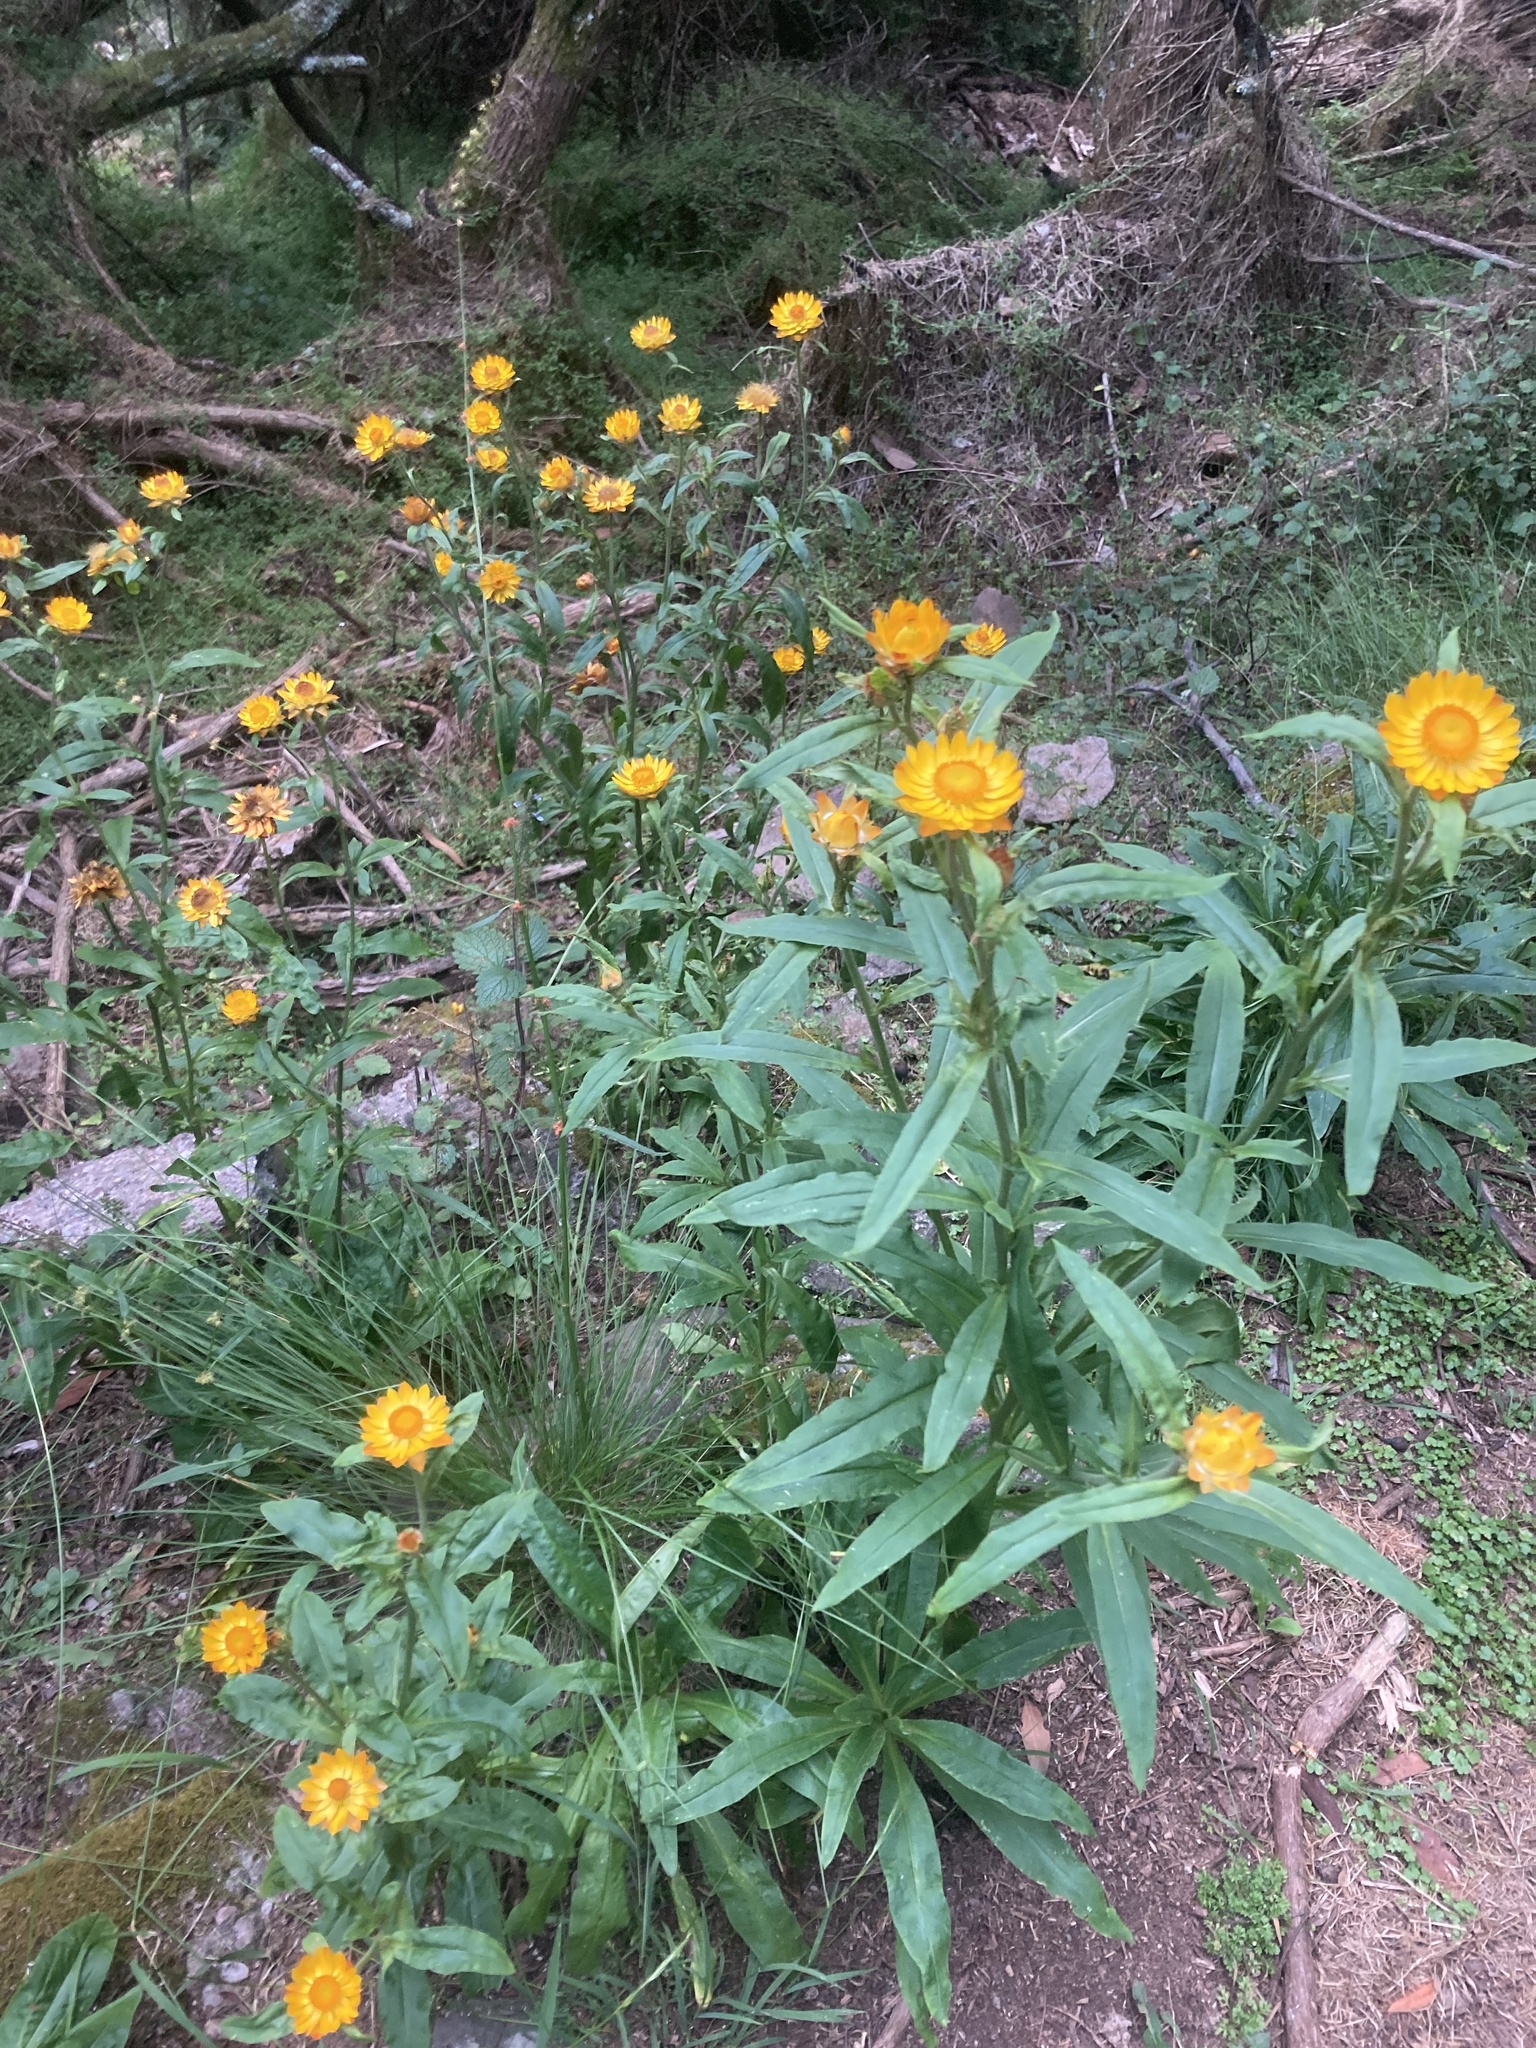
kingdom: Plantae
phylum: Tracheophyta
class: Magnoliopsida
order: Asterales
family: Asteraceae
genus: Xerochrysum
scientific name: Xerochrysum bracteatum
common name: Bracted strawflower
